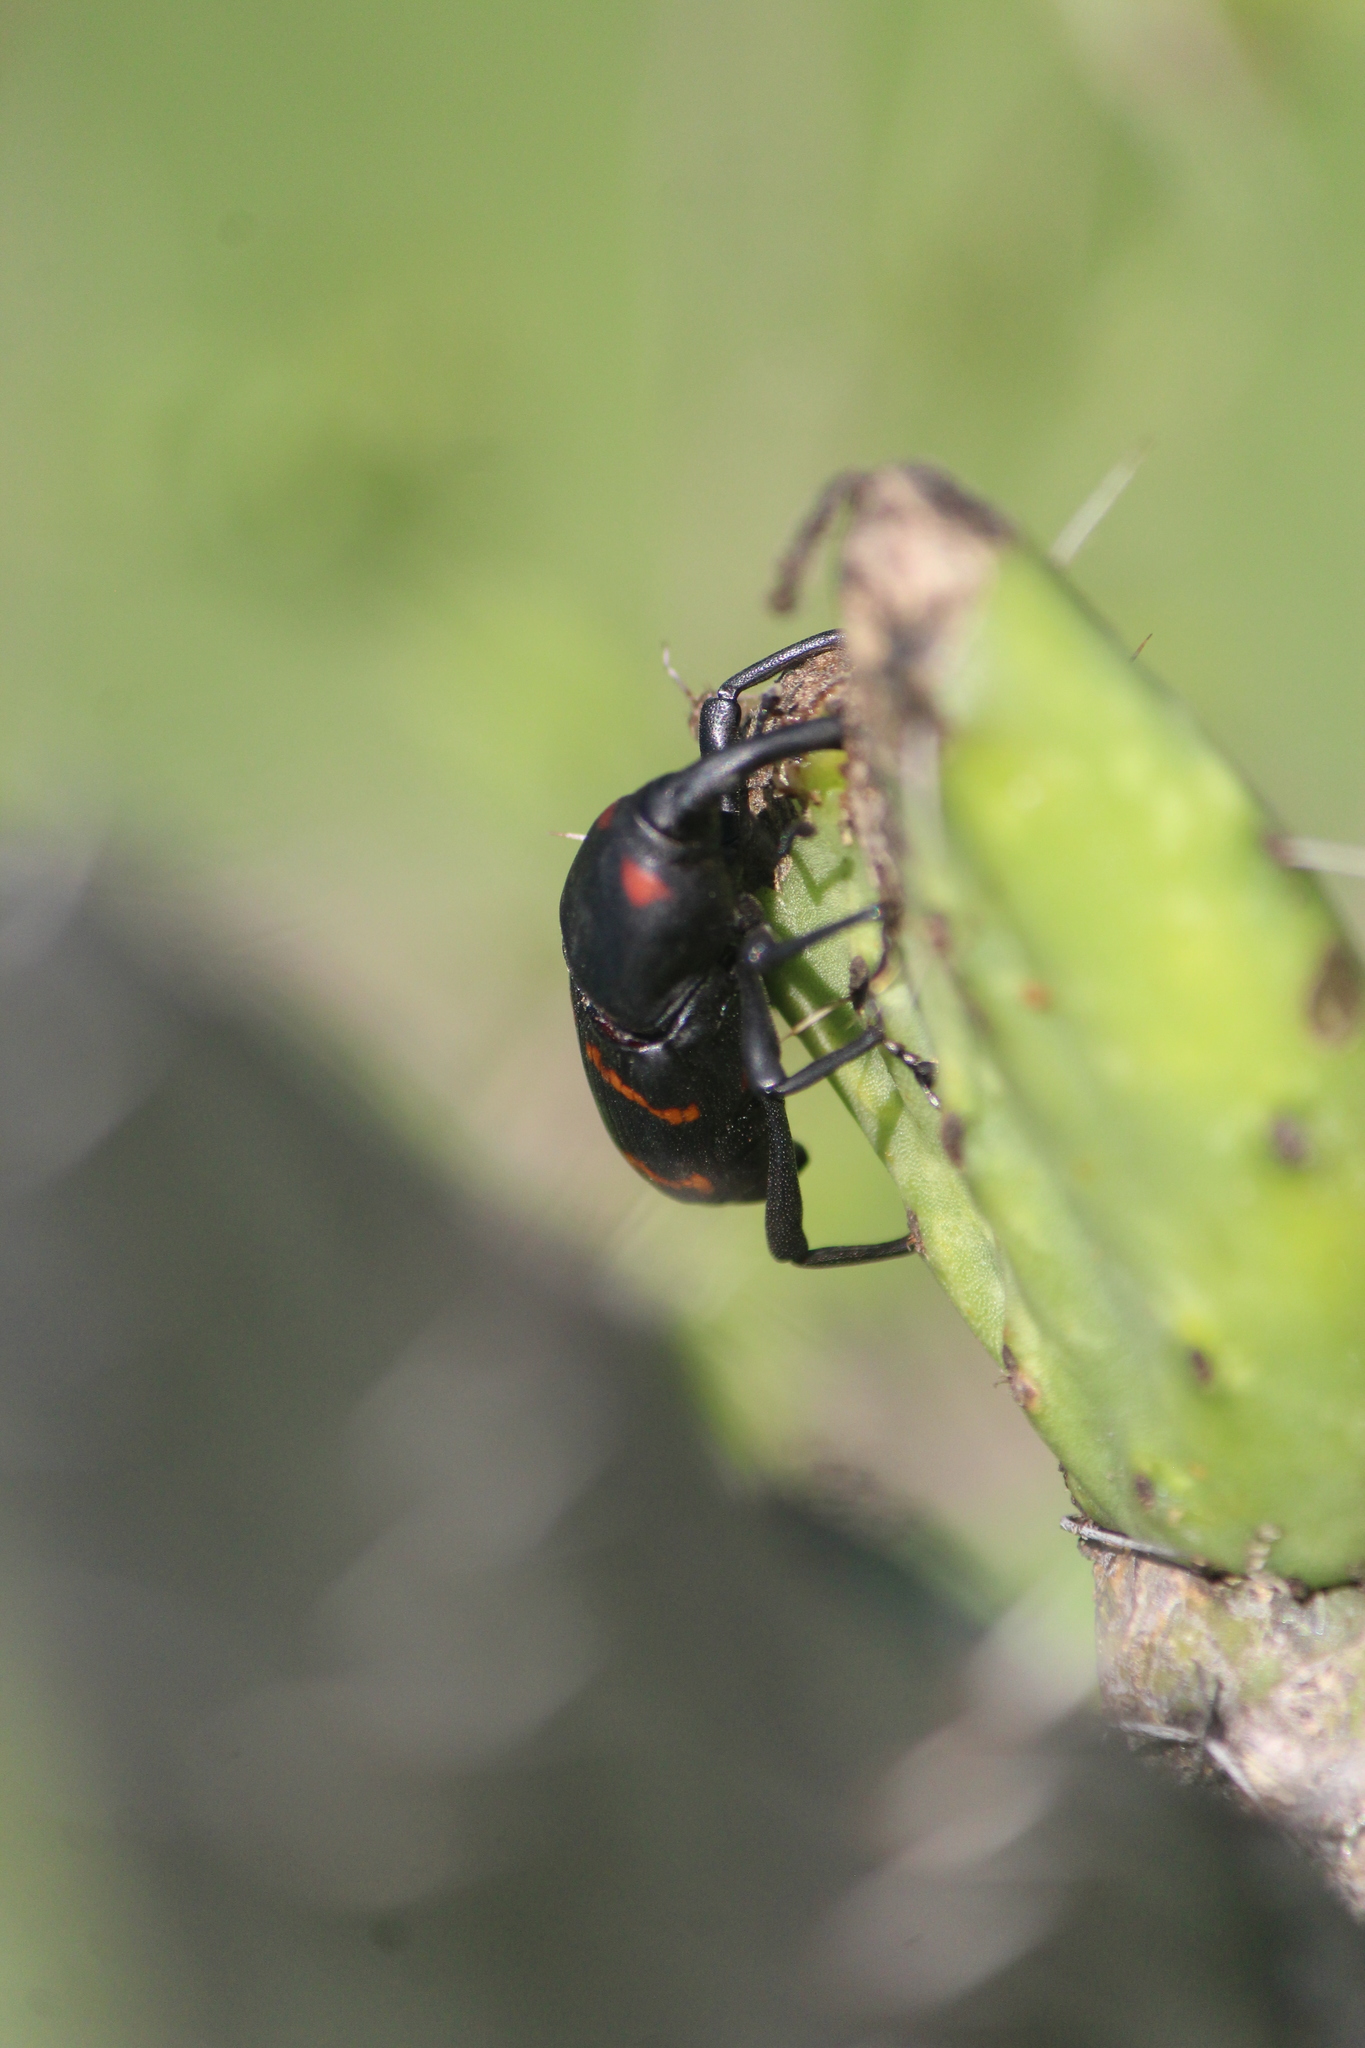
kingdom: Animalia
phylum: Arthropoda
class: Insecta
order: Coleoptera
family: Dryophthoridae
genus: Cactophagus
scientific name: Cactophagus spinolae
